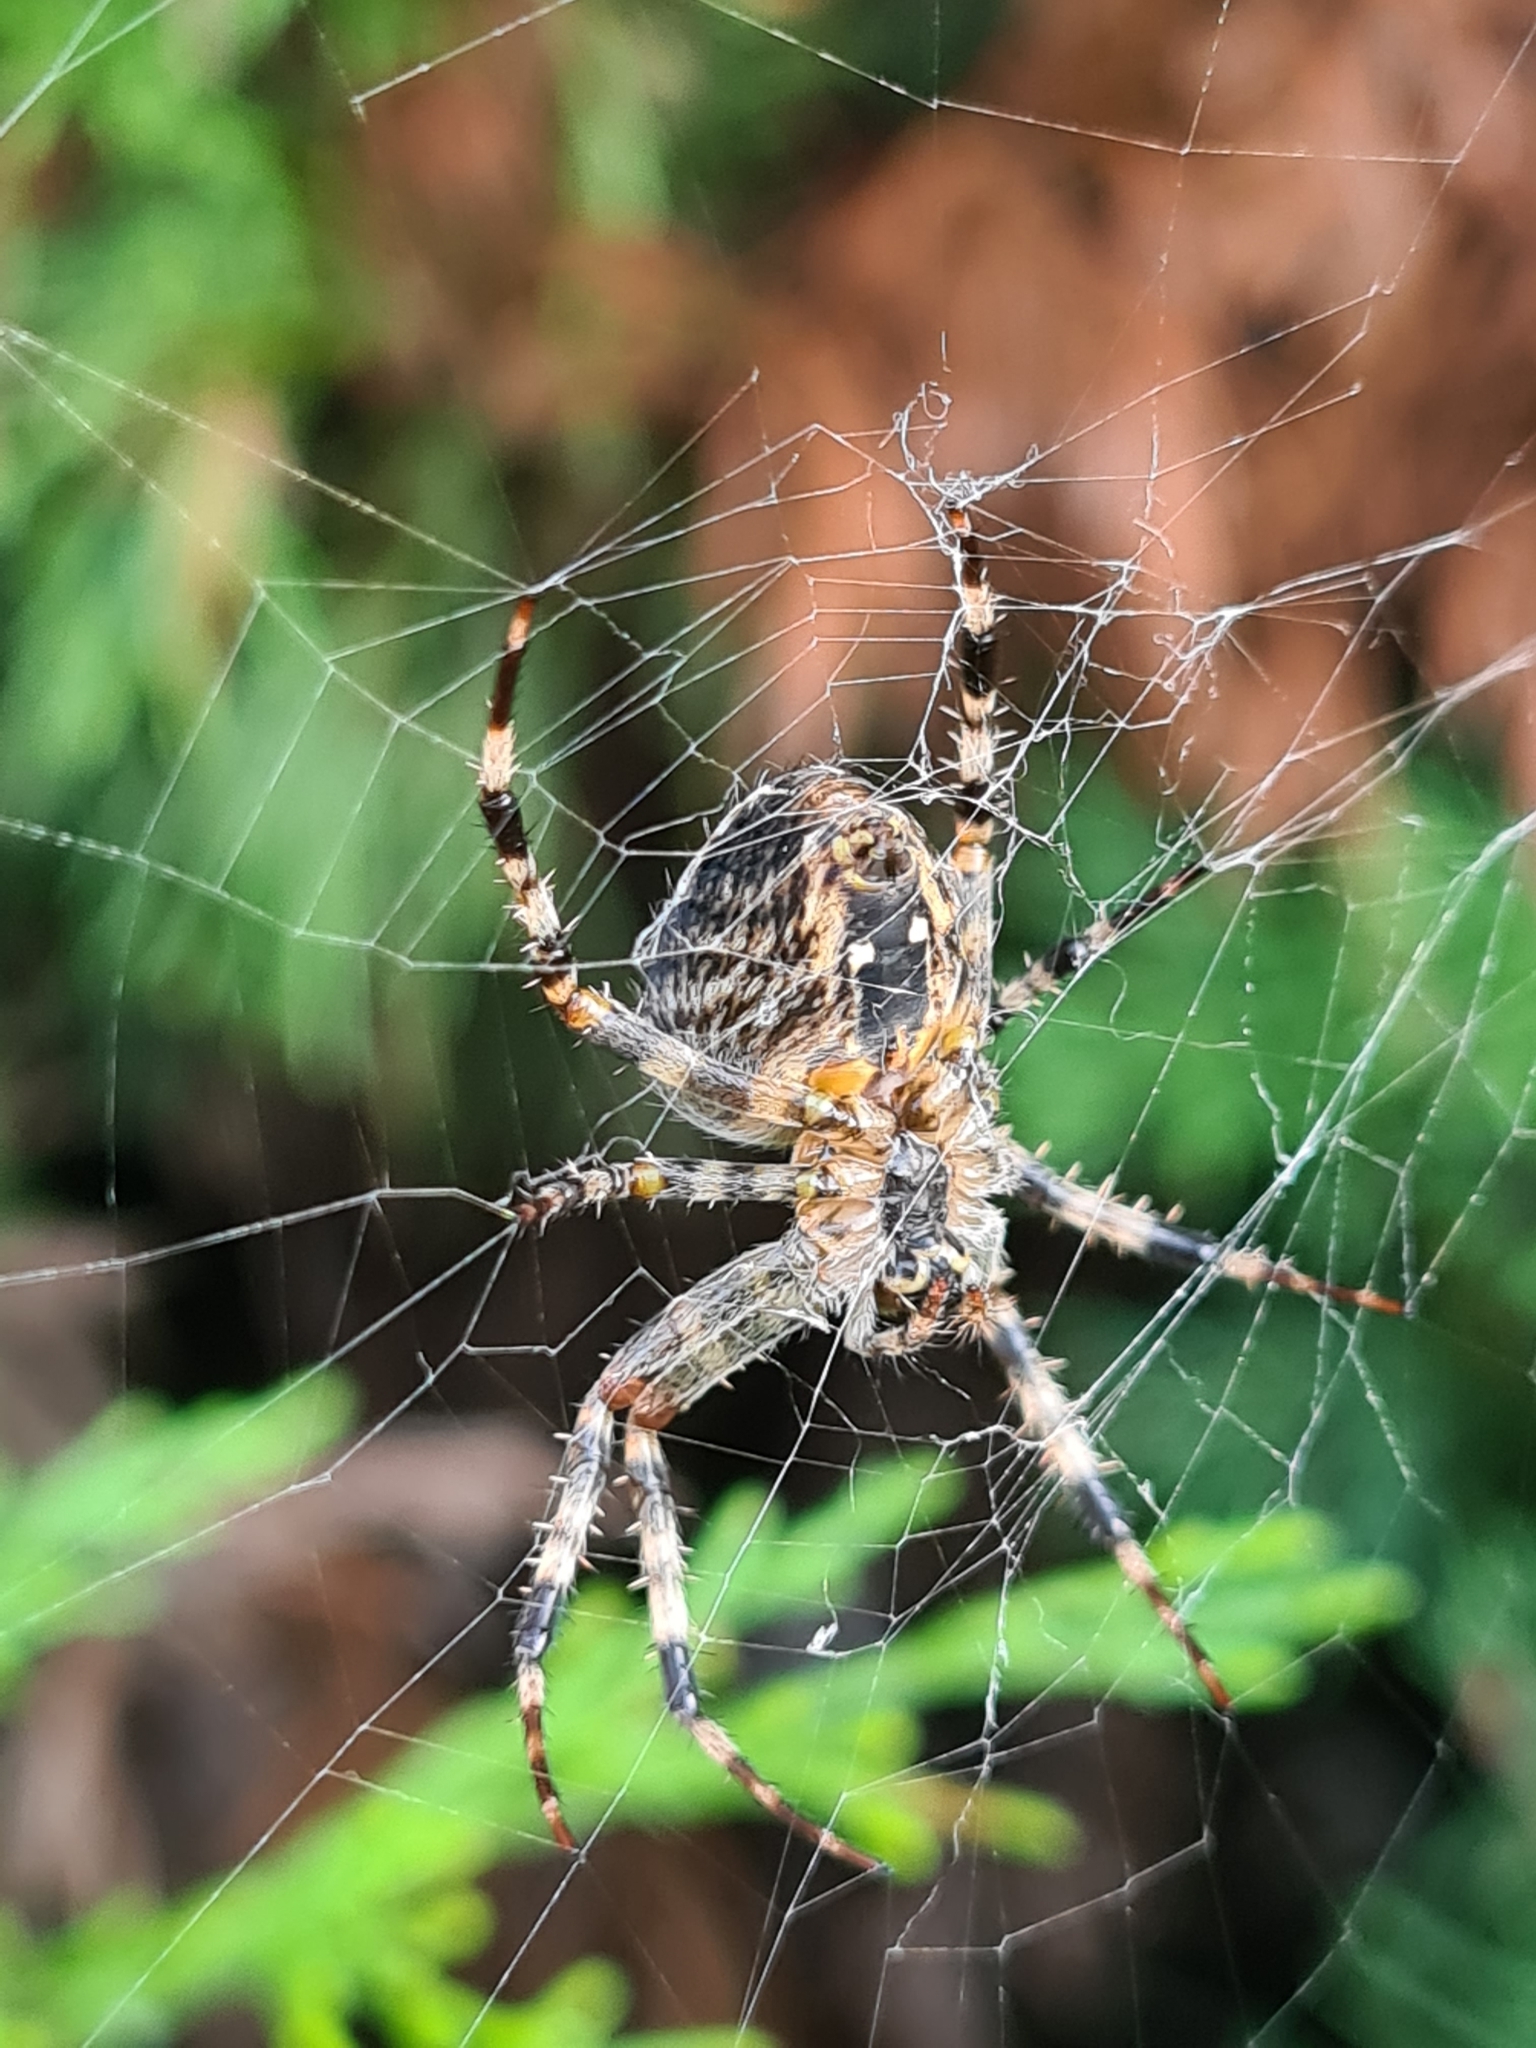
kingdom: Animalia
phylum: Arthropoda
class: Arachnida
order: Araneae
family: Araneidae
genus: Araneus
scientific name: Araneus diadematus
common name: Cross orbweaver
